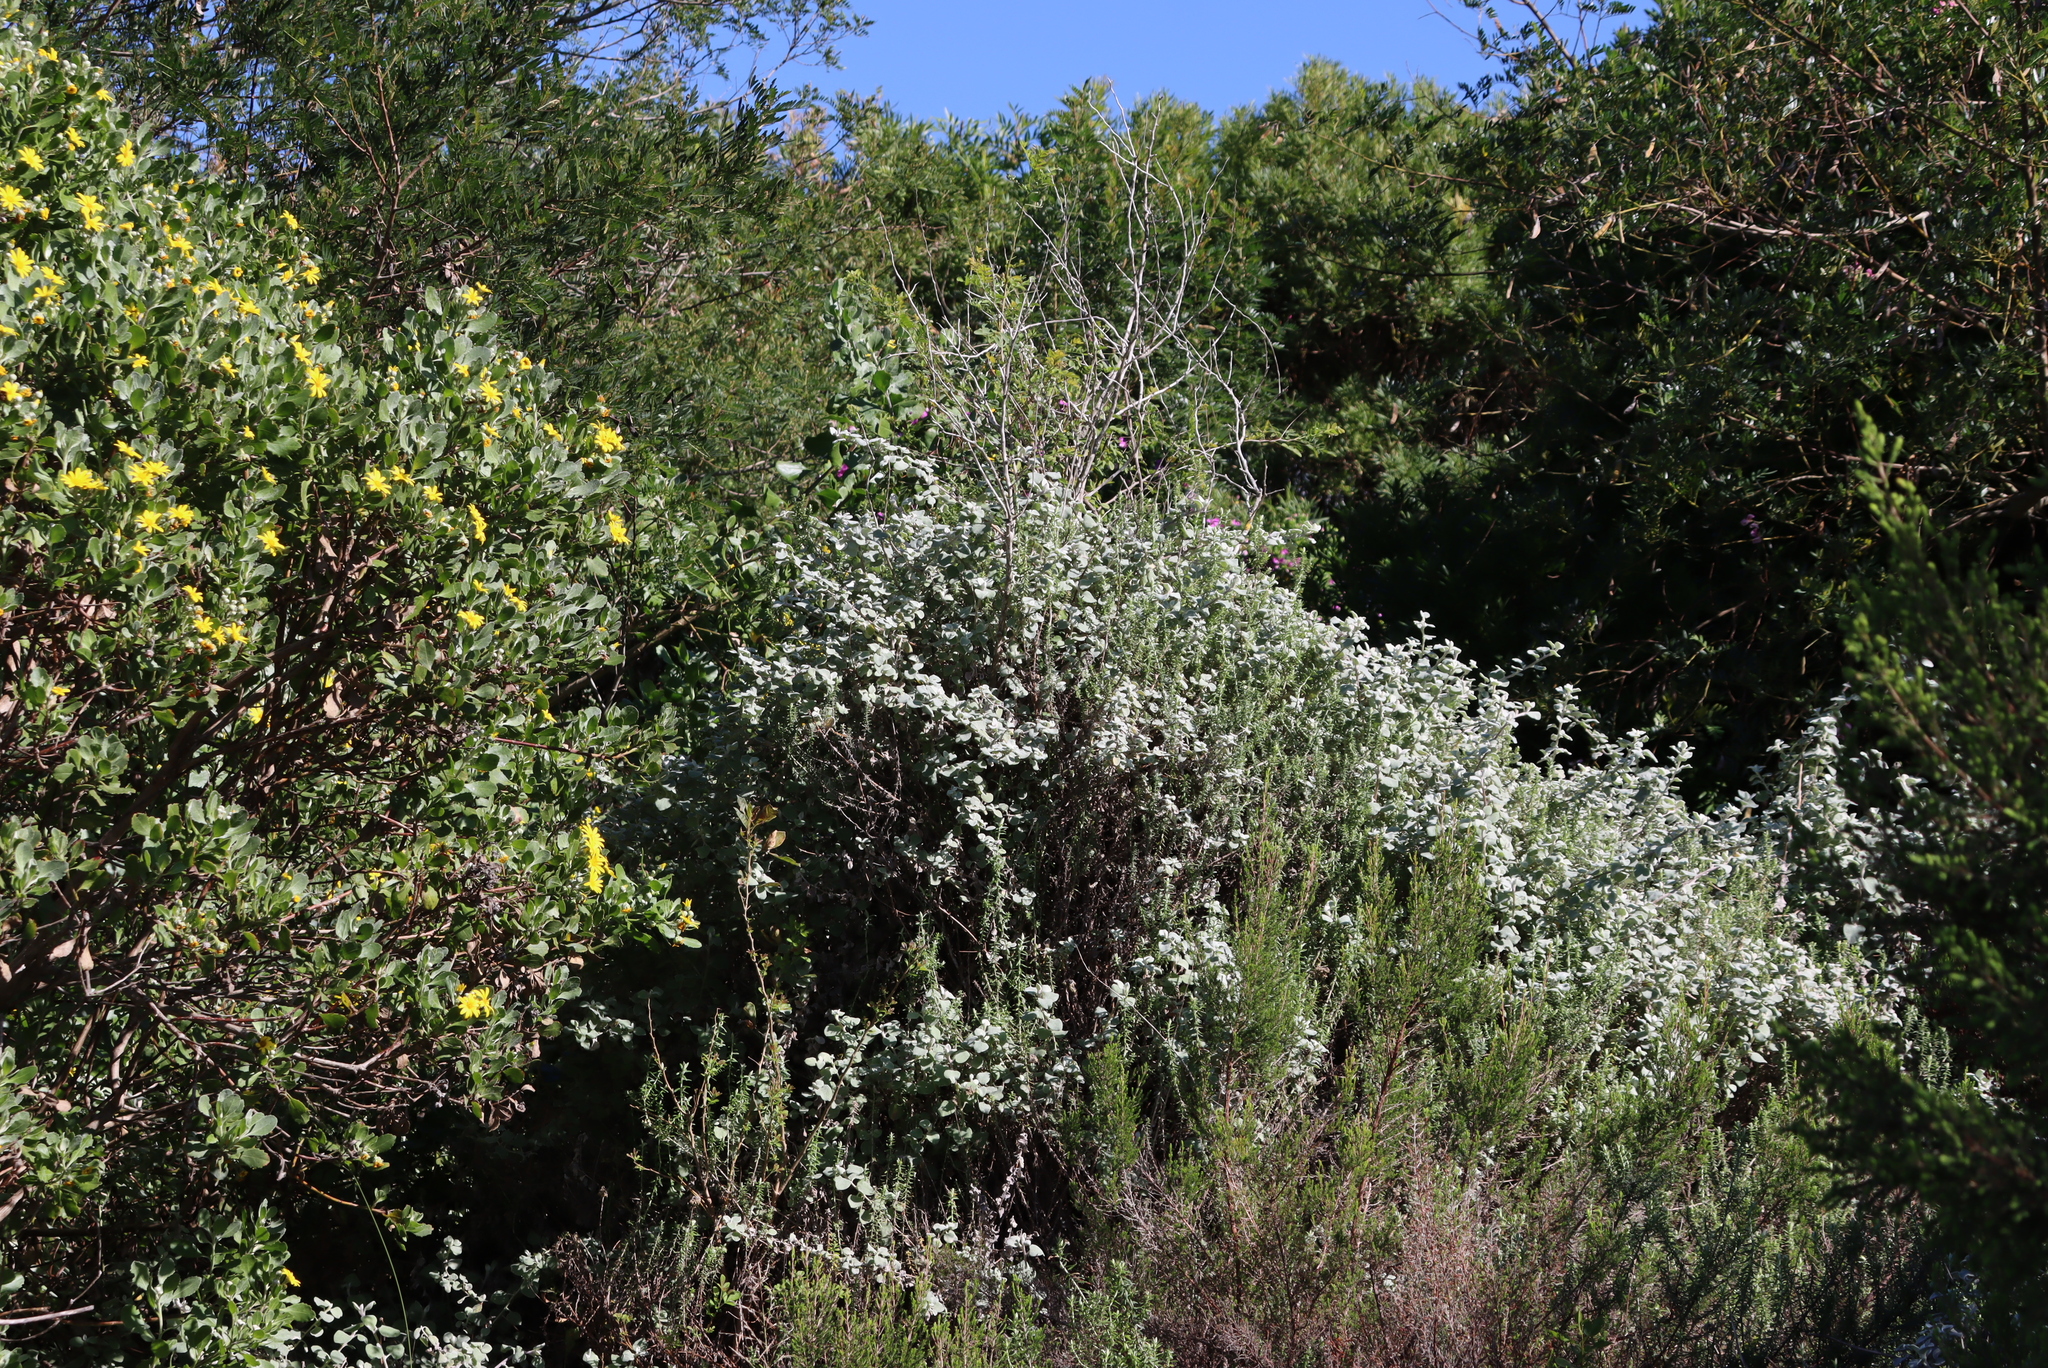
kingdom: Plantae
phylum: Tracheophyta
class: Magnoliopsida
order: Asterales
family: Asteraceae
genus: Helichrysum
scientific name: Helichrysum petiolare
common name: Licorice-plant
